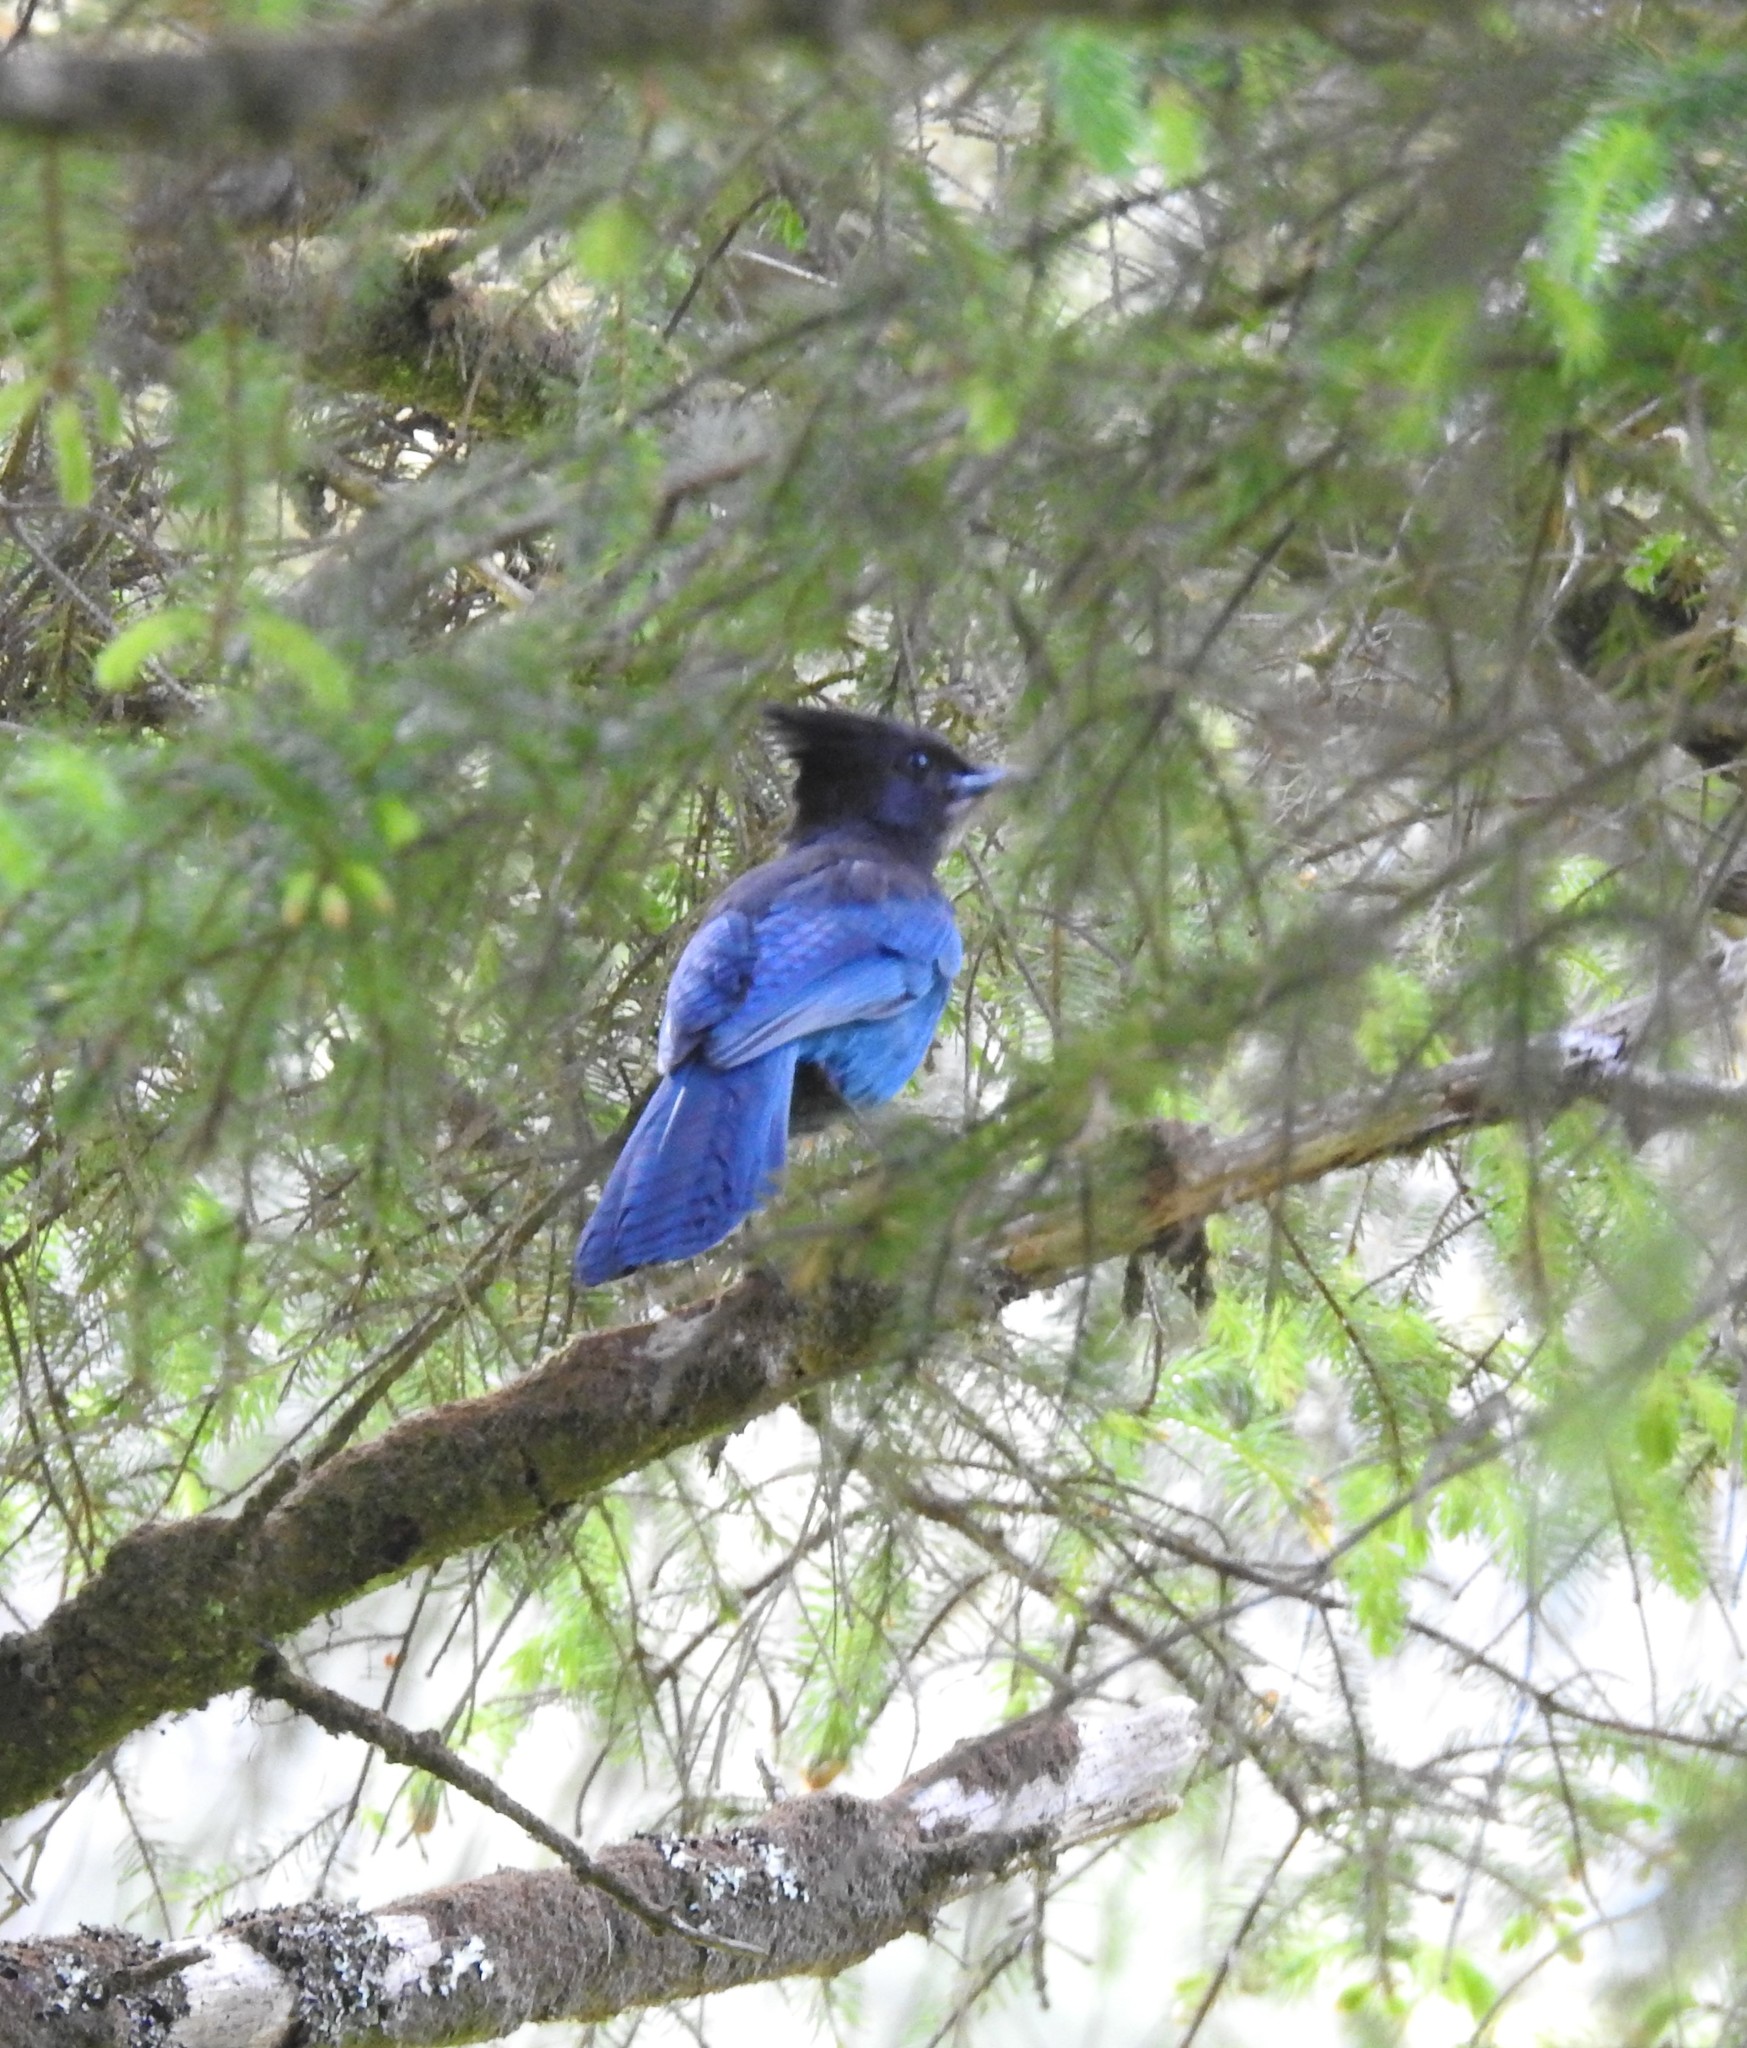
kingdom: Animalia
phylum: Chordata
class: Aves
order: Passeriformes
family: Corvidae
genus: Cyanocitta
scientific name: Cyanocitta stelleri
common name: Steller's jay
